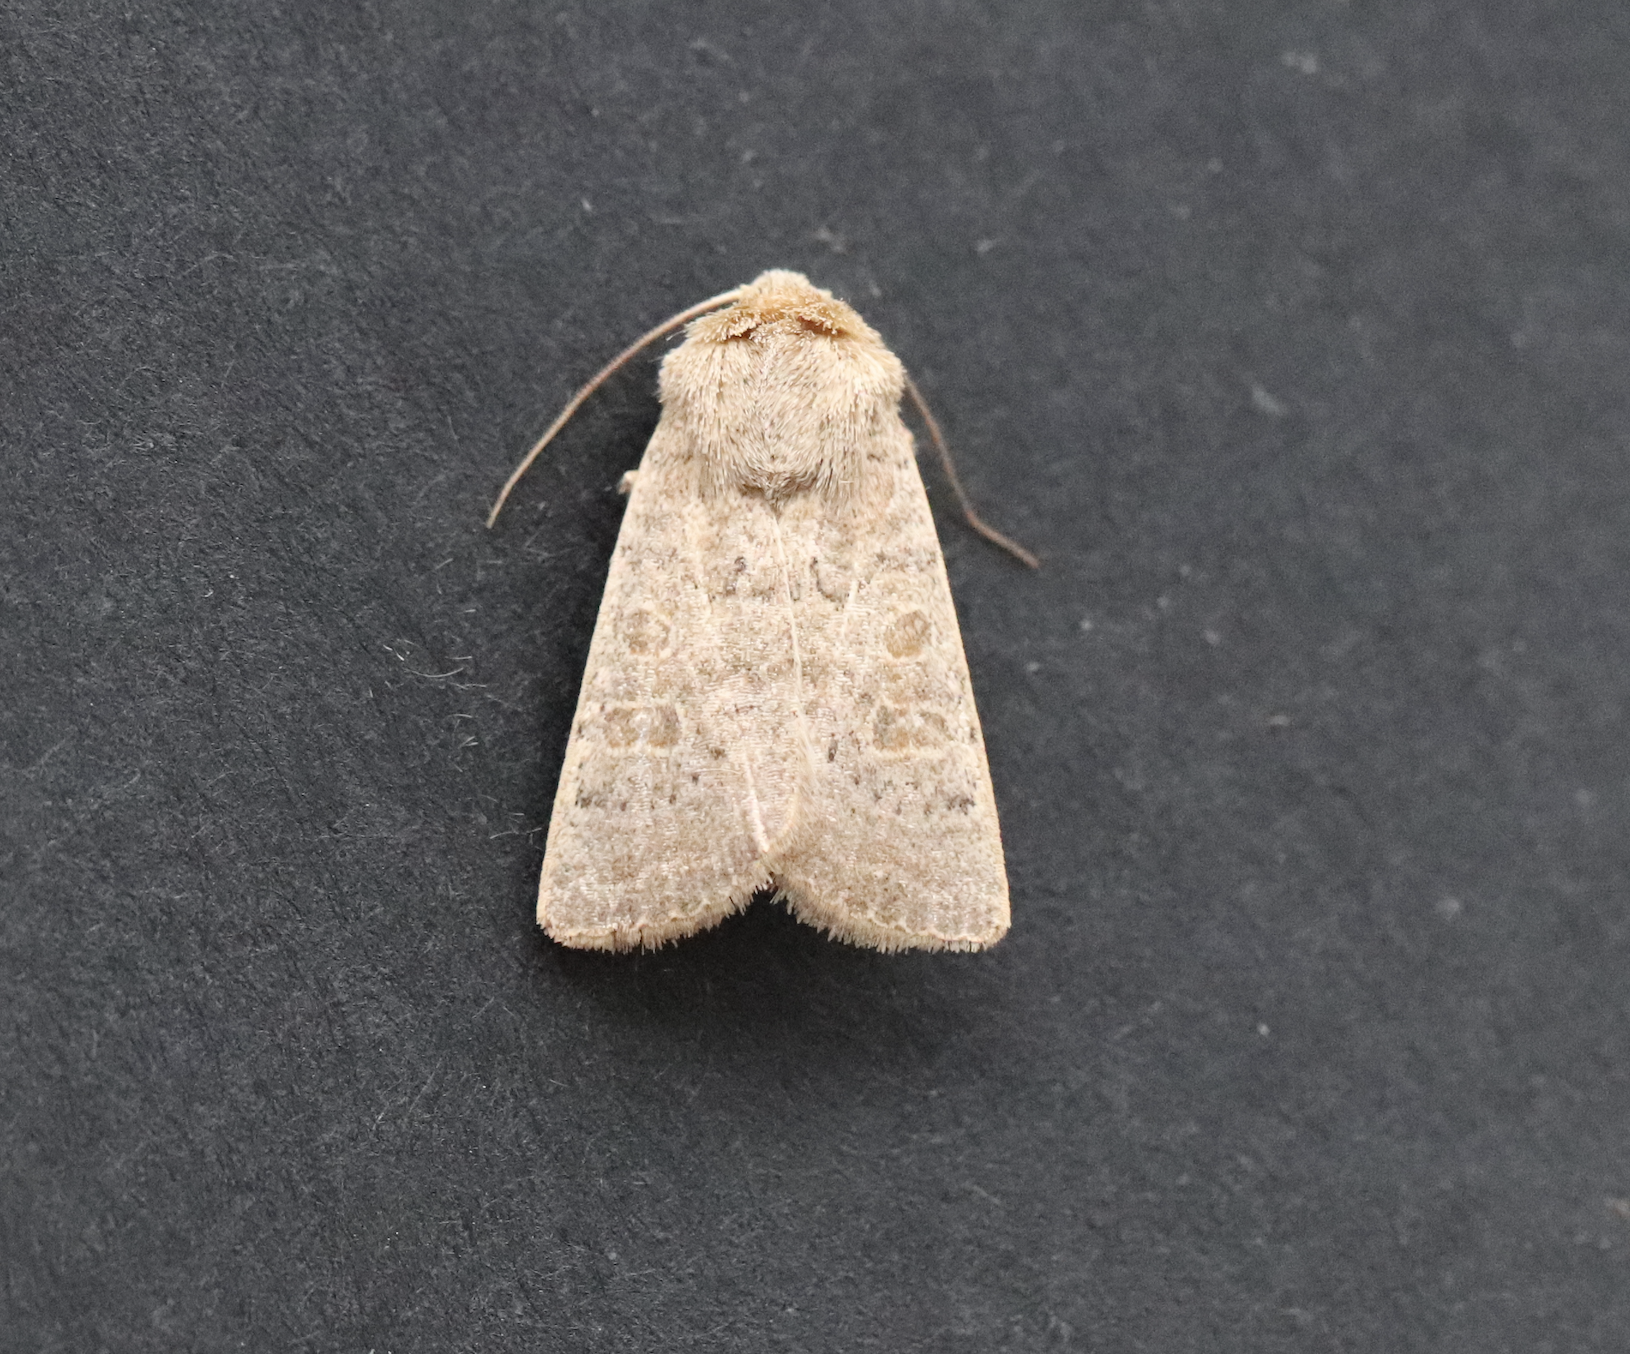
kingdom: Animalia
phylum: Arthropoda
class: Insecta
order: Lepidoptera
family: Noctuidae
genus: Hoplodrina
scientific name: Hoplodrina ambigua
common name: Vine's rustic
